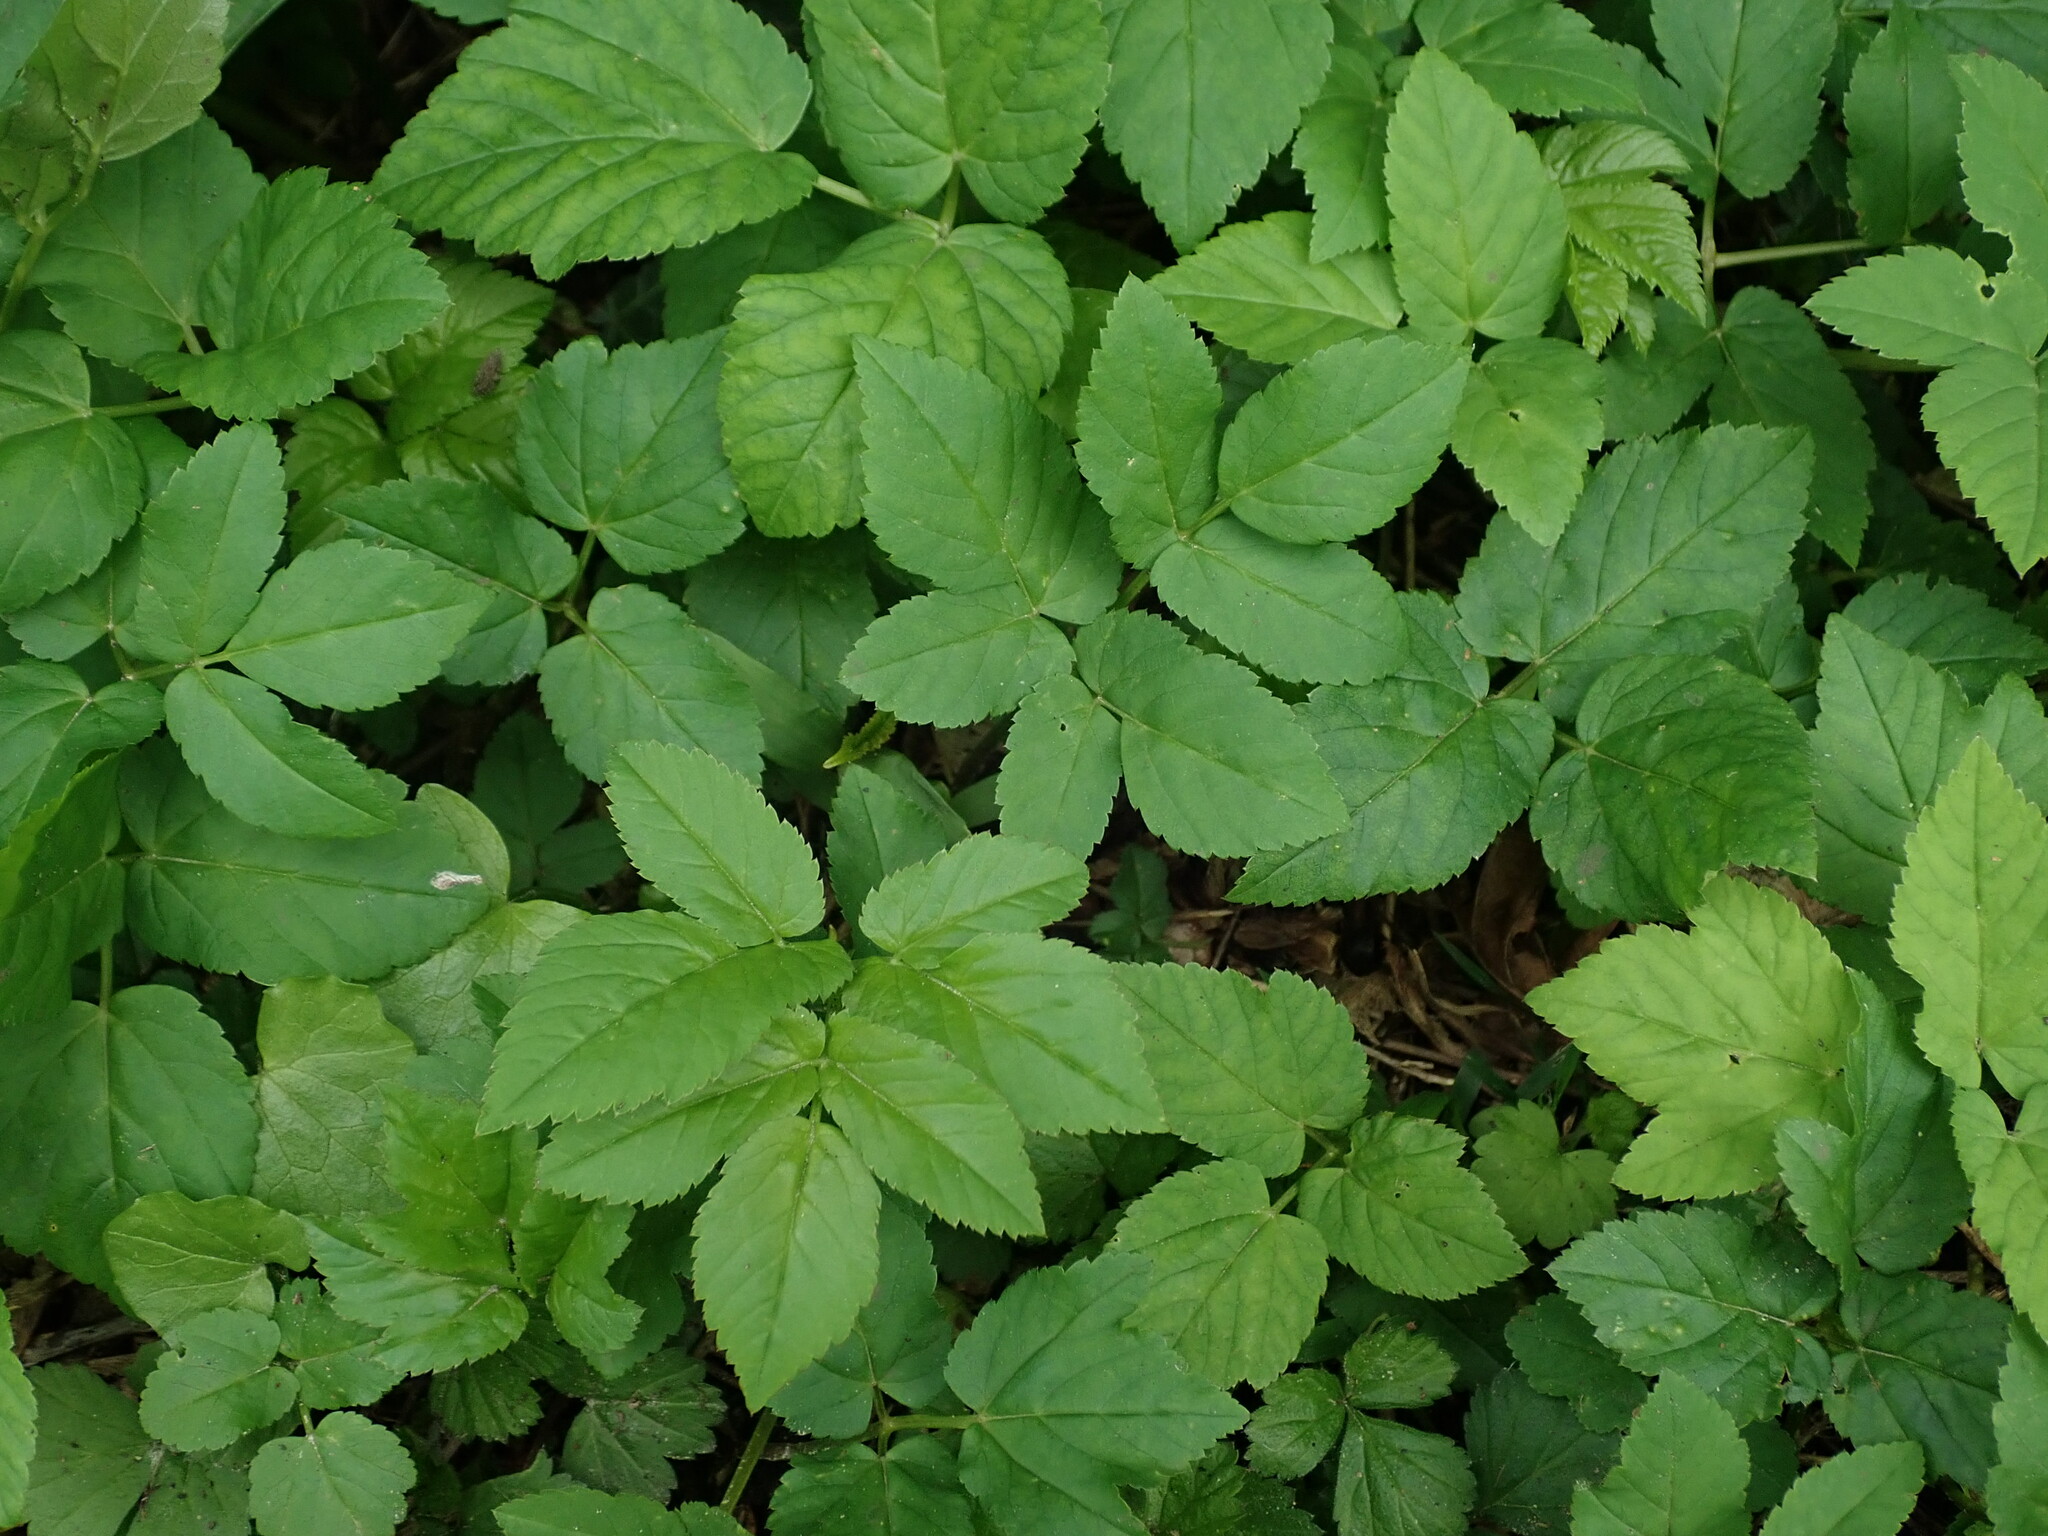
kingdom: Plantae
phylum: Tracheophyta
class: Magnoliopsida
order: Apiales
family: Apiaceae
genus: Aegopodium
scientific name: Aegopodium podagraria
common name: Ground-elder
